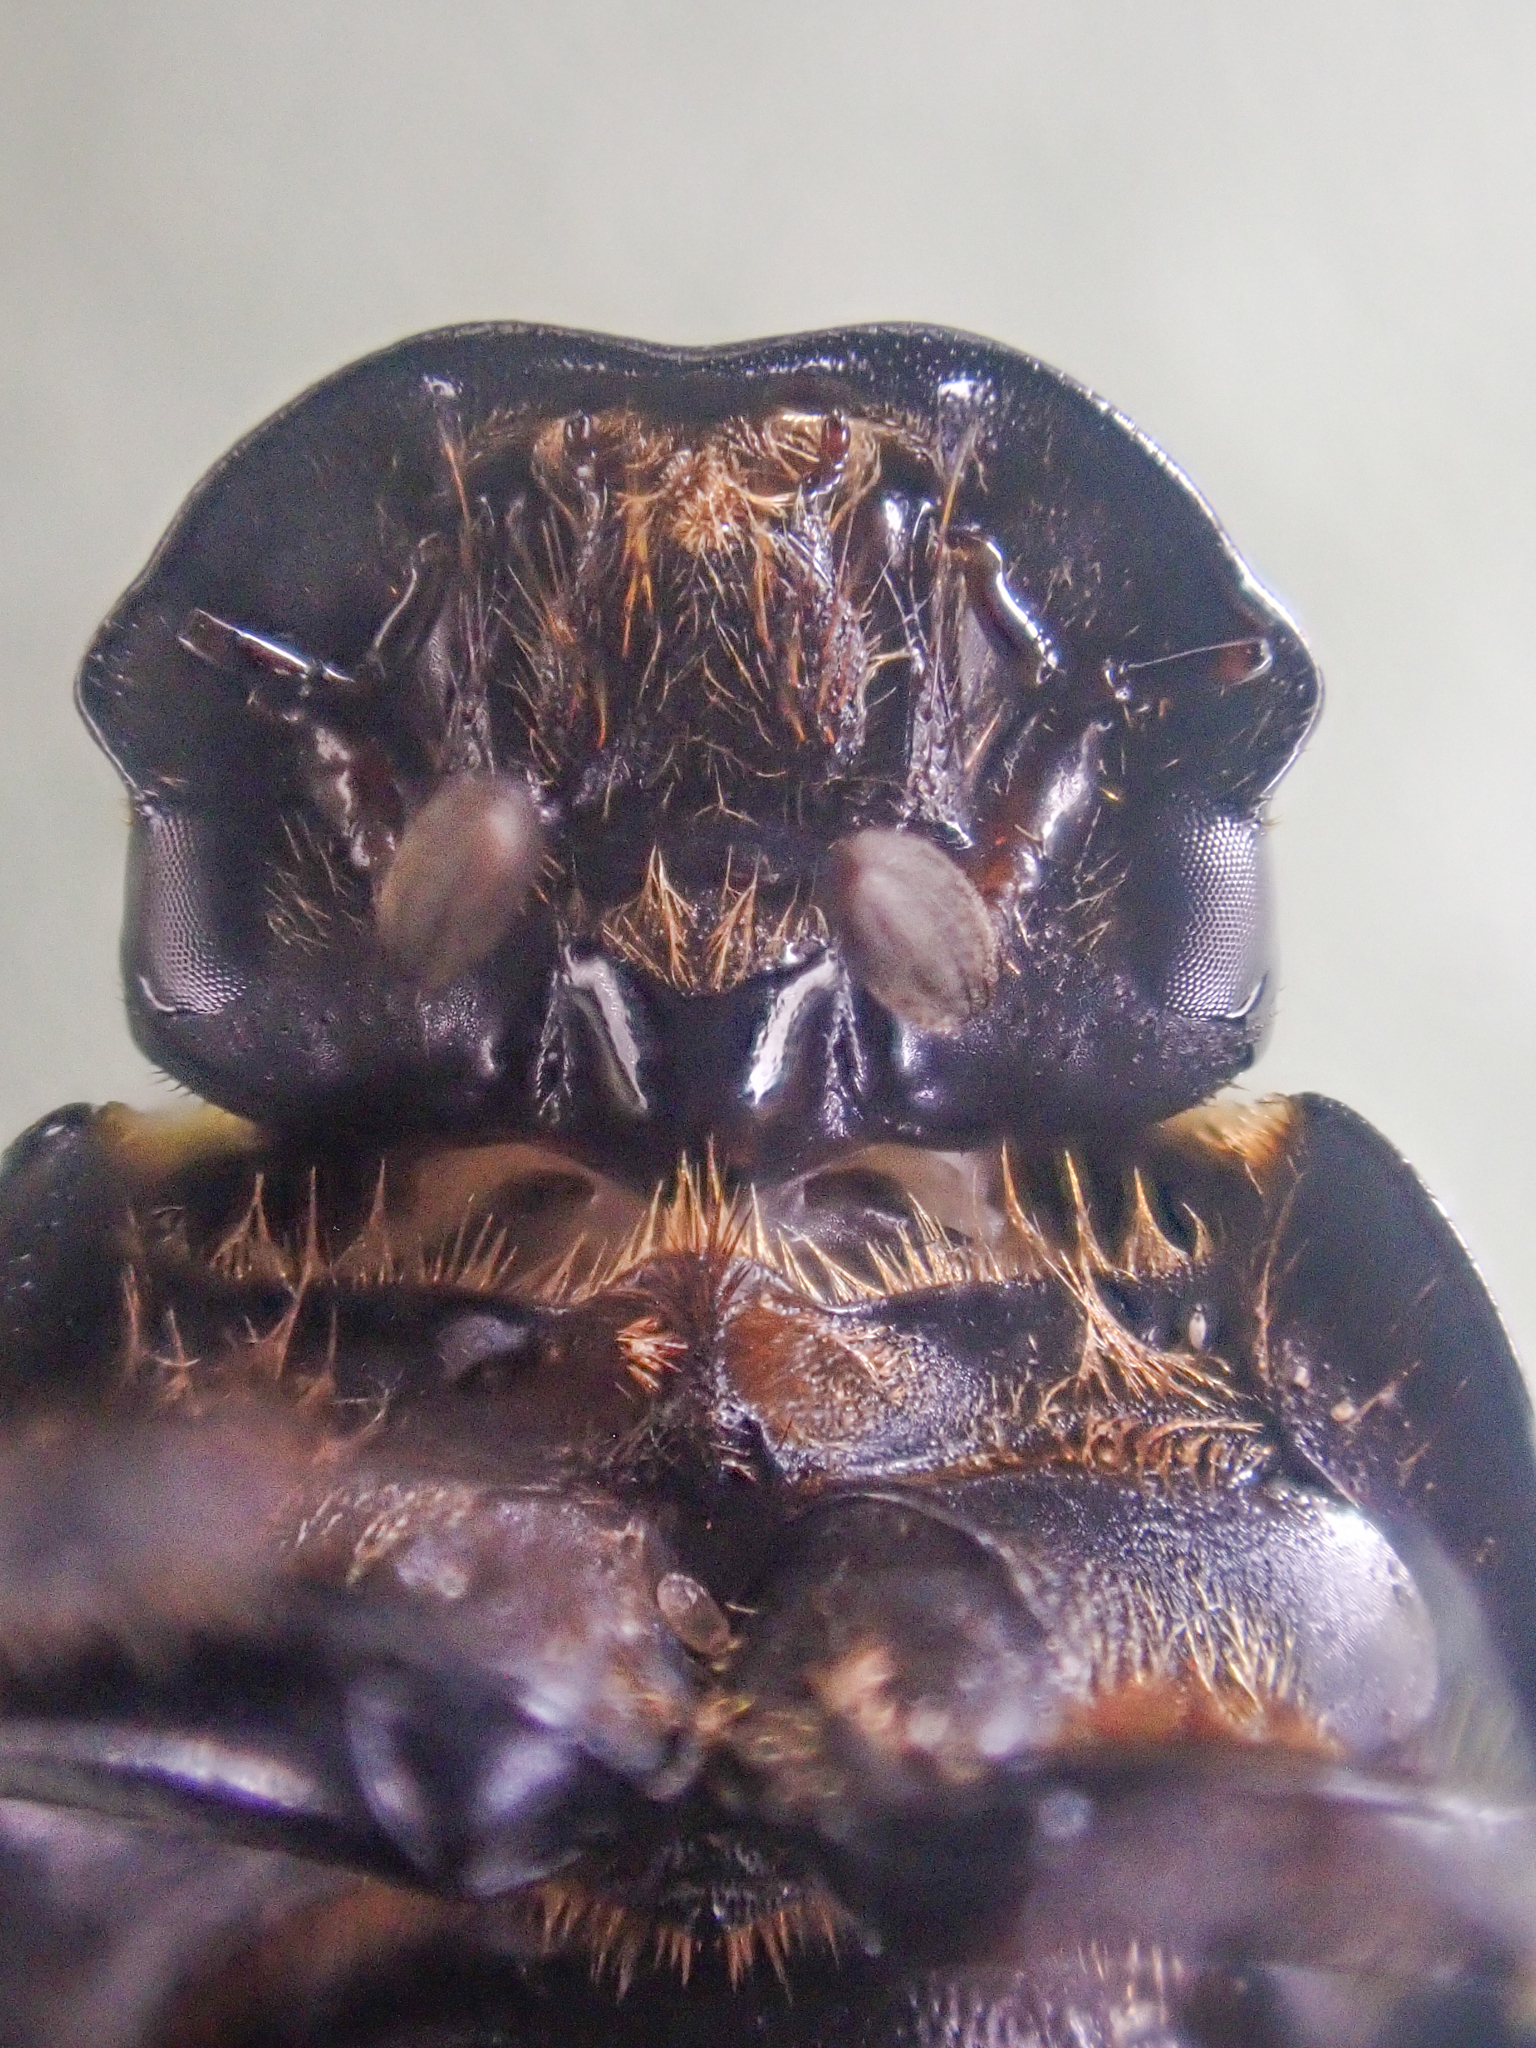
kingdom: Animalia
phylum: Arthropoda
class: Insecta
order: Coleoptera
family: Scarabaeidae
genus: Teuchestes
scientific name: Teuchestes fossor
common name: Digger small dung beetle
